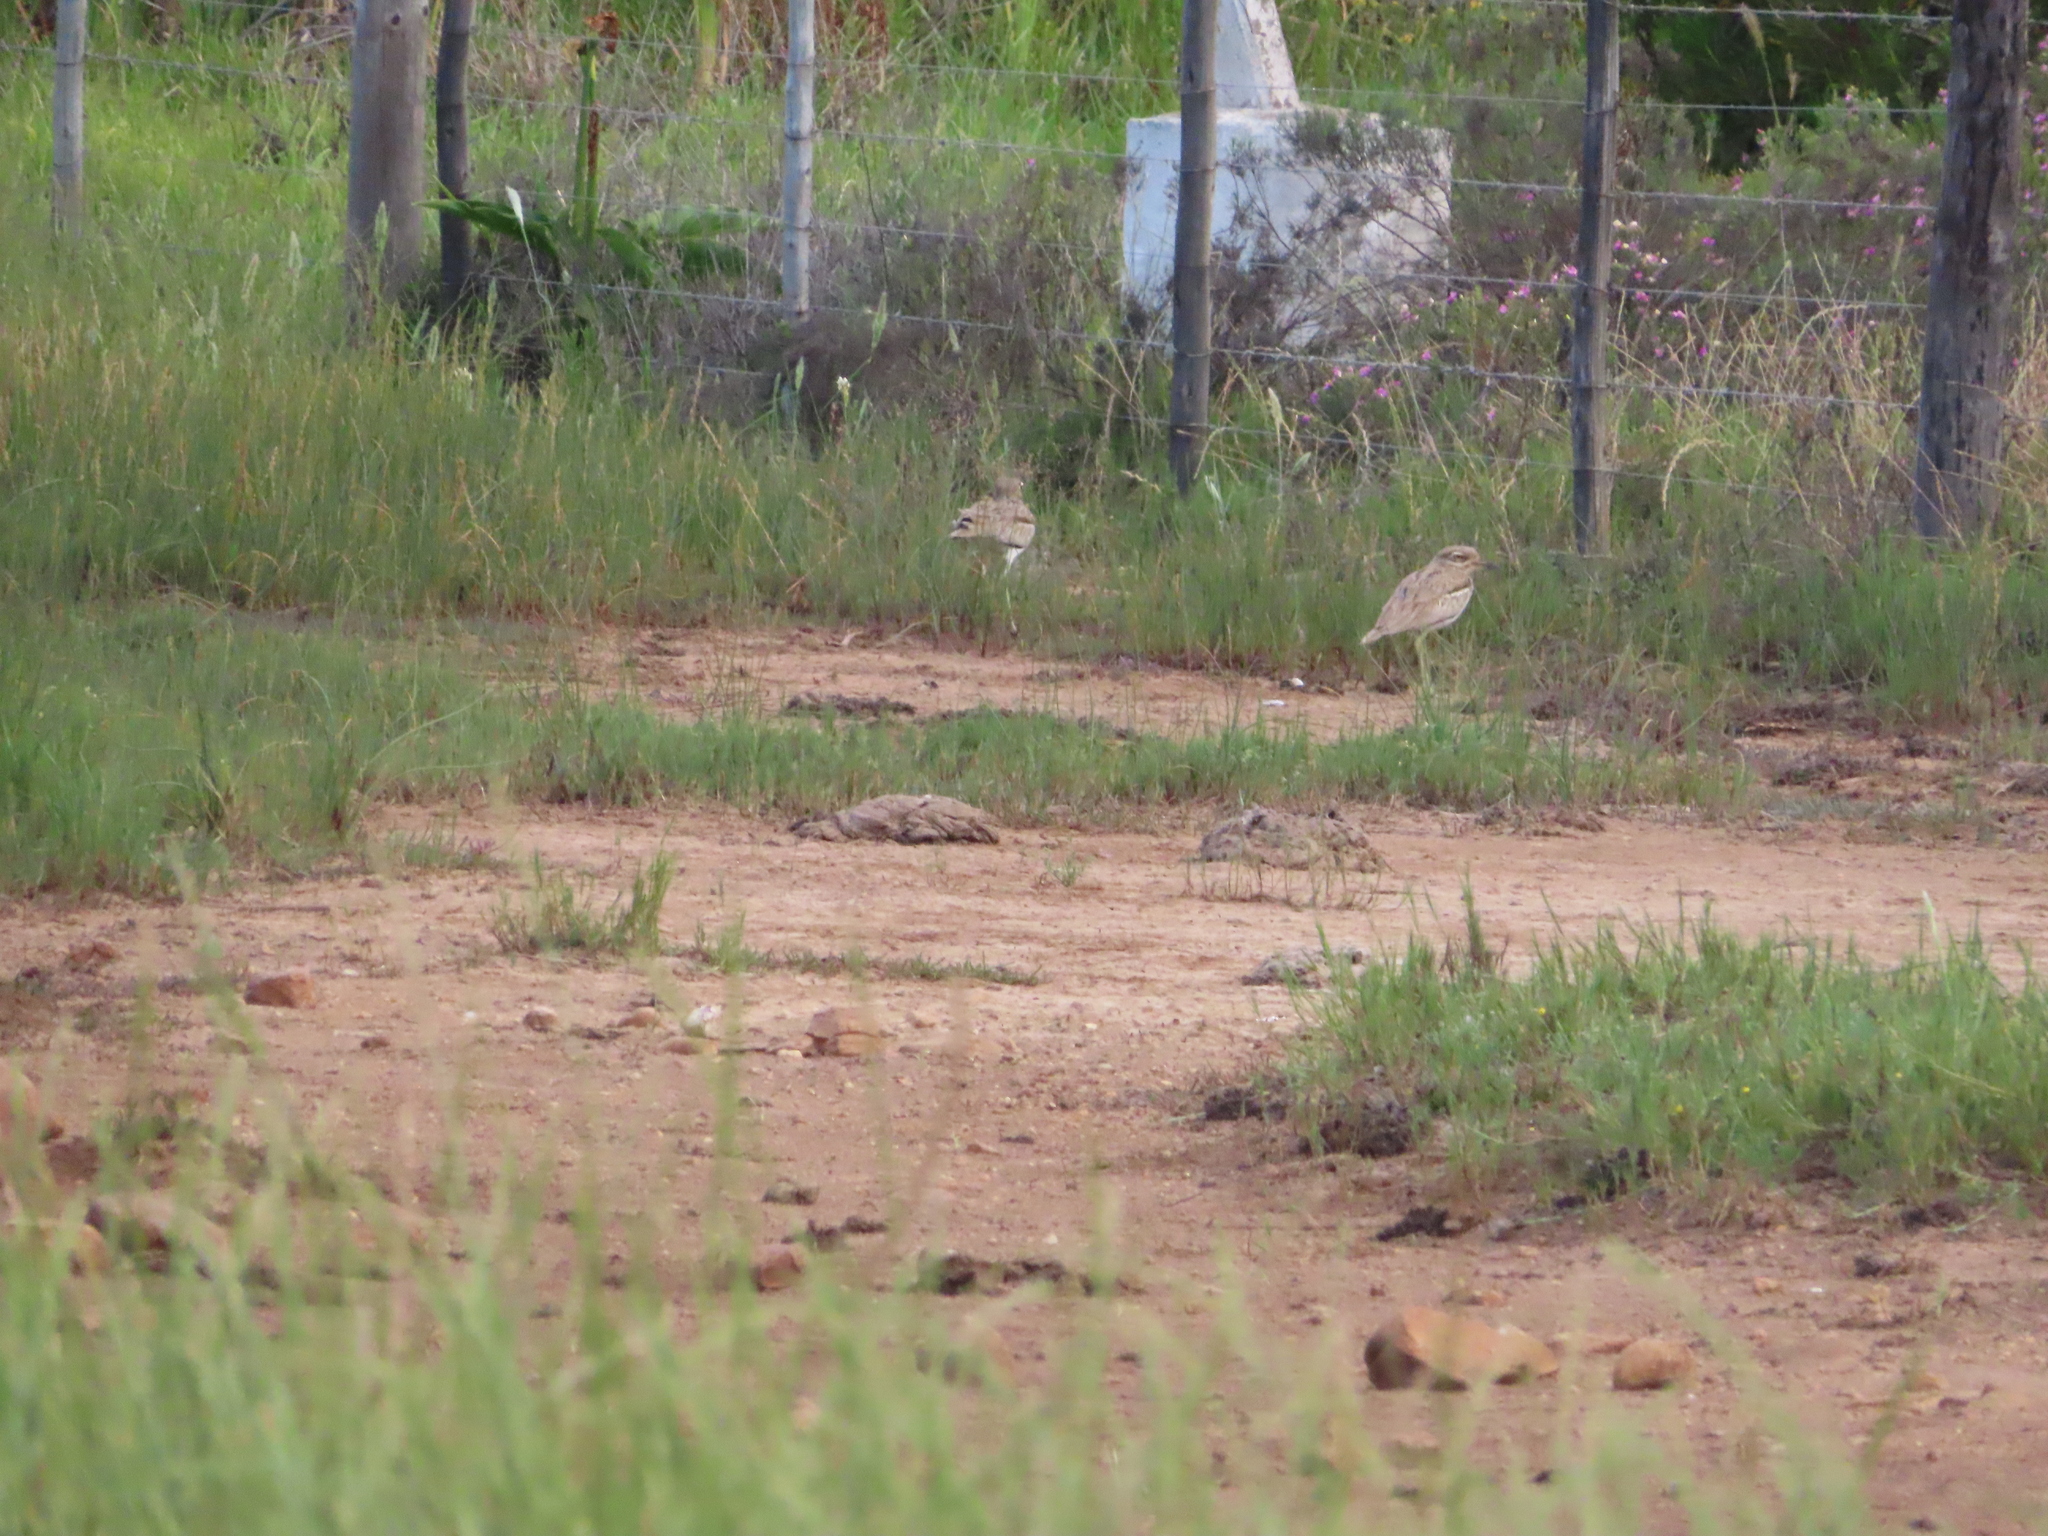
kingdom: Animalia
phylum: Chordata
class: Aves
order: Charadriiformes
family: Burhinidae
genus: Burhinus
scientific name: Burhinus vermiculatus
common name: Water thick-knee
